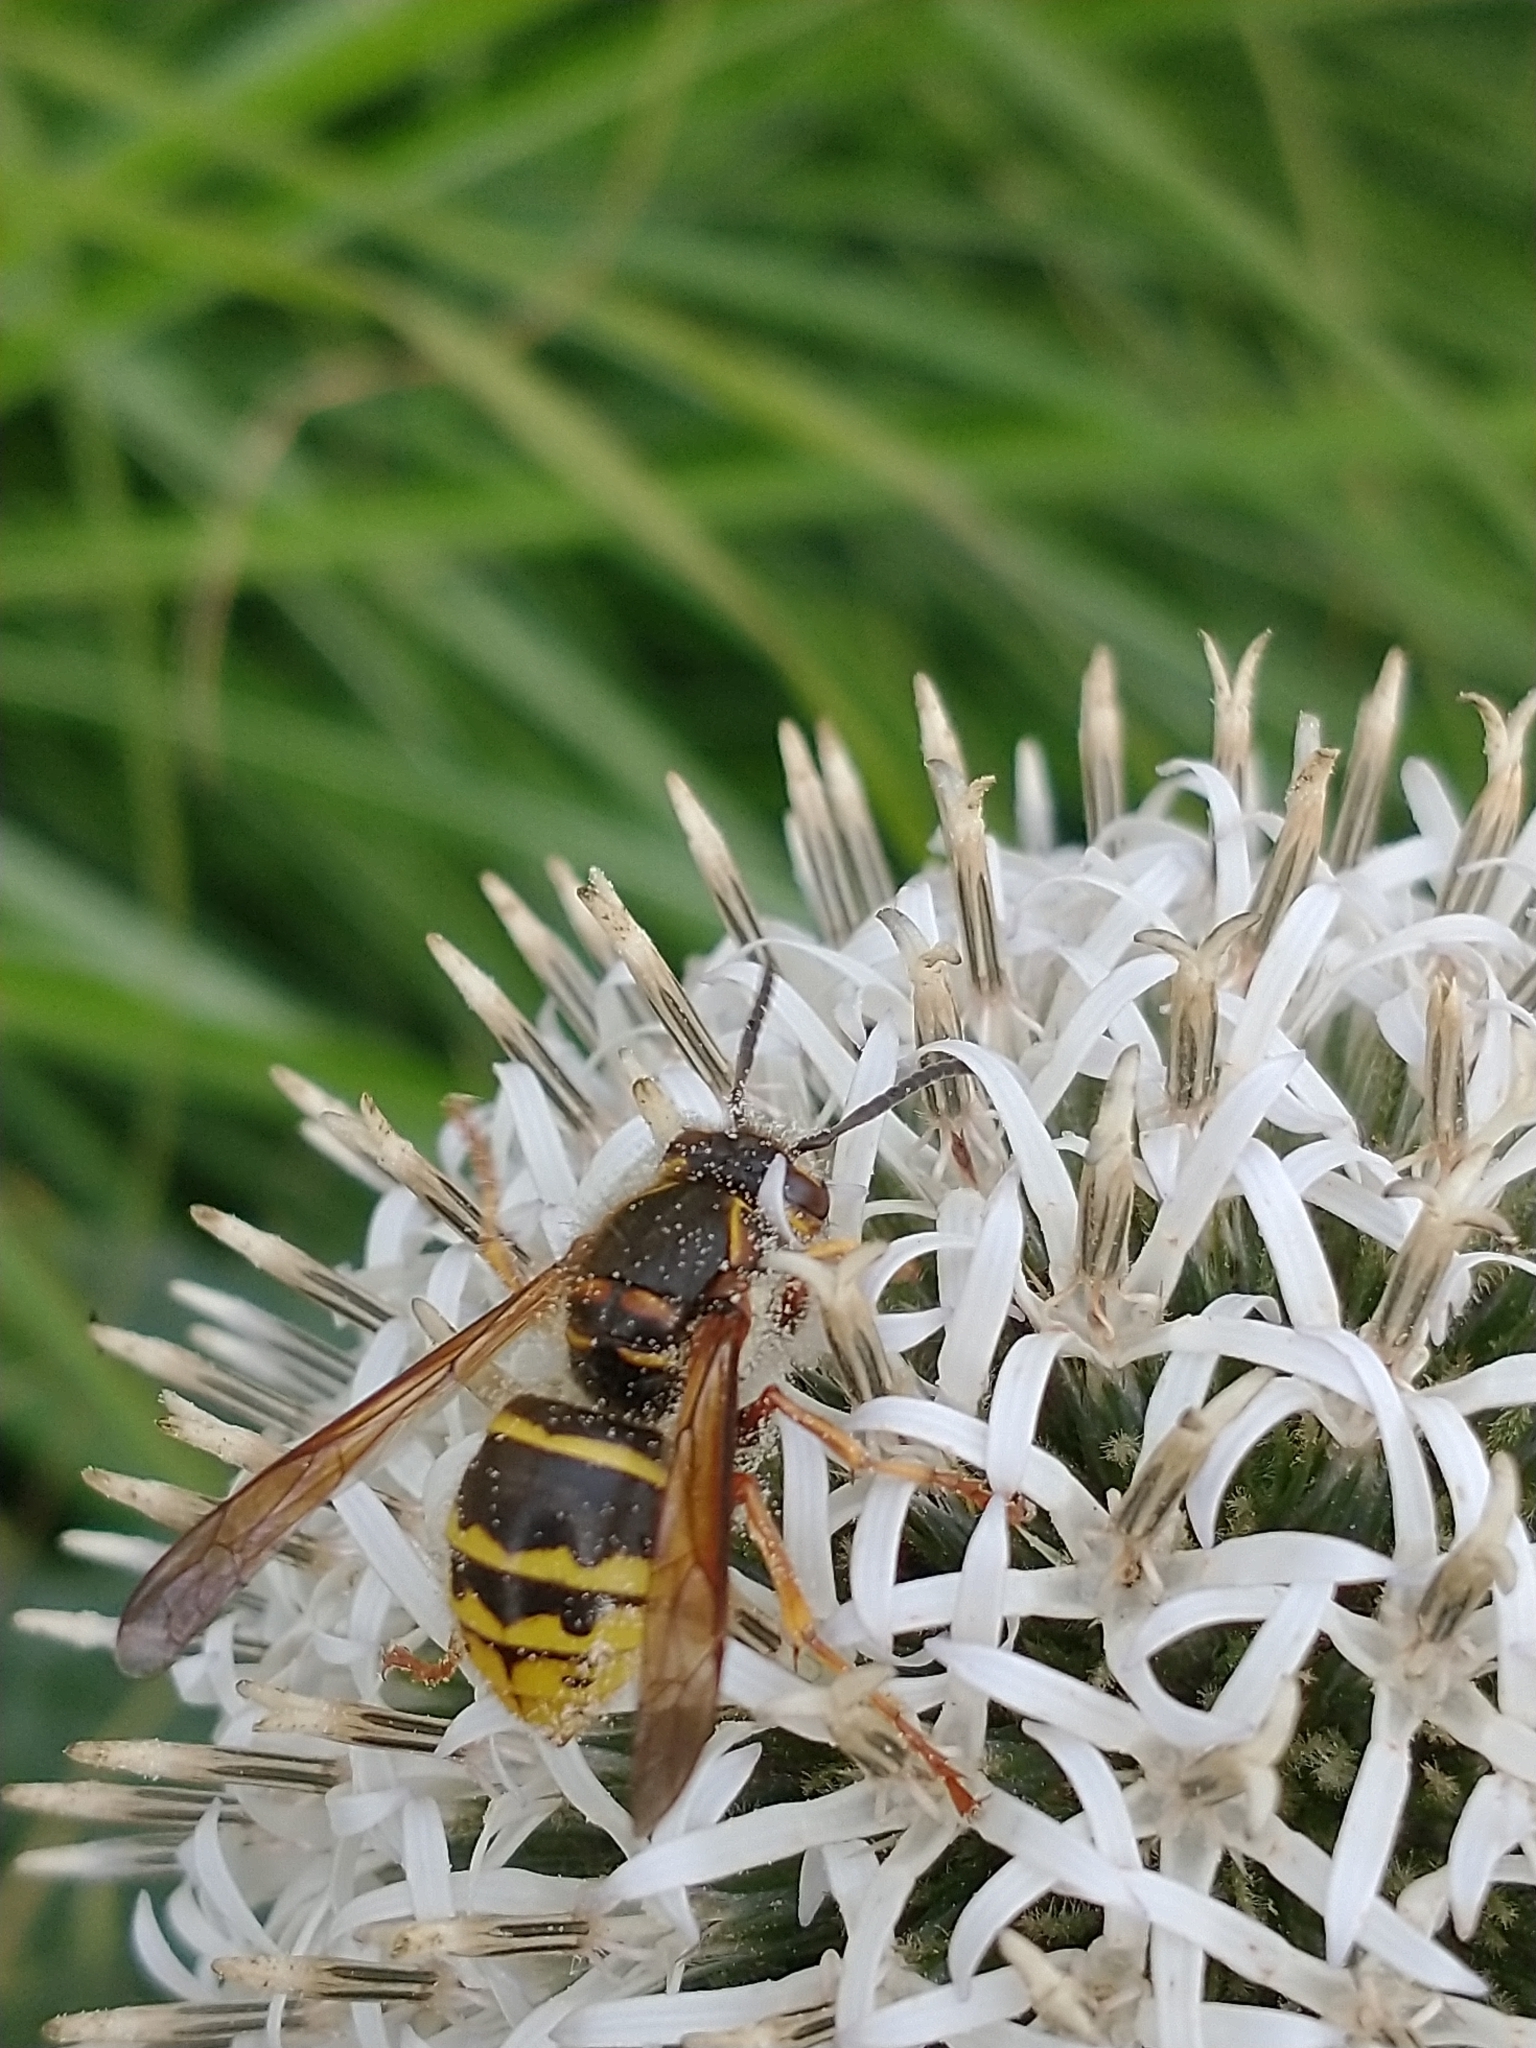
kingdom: Animalia
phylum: Arthropoda
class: Insecta
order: Hymenoptera
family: Vespidae
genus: Dolichovespula
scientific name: Dolichovespula media
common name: Median wasp
